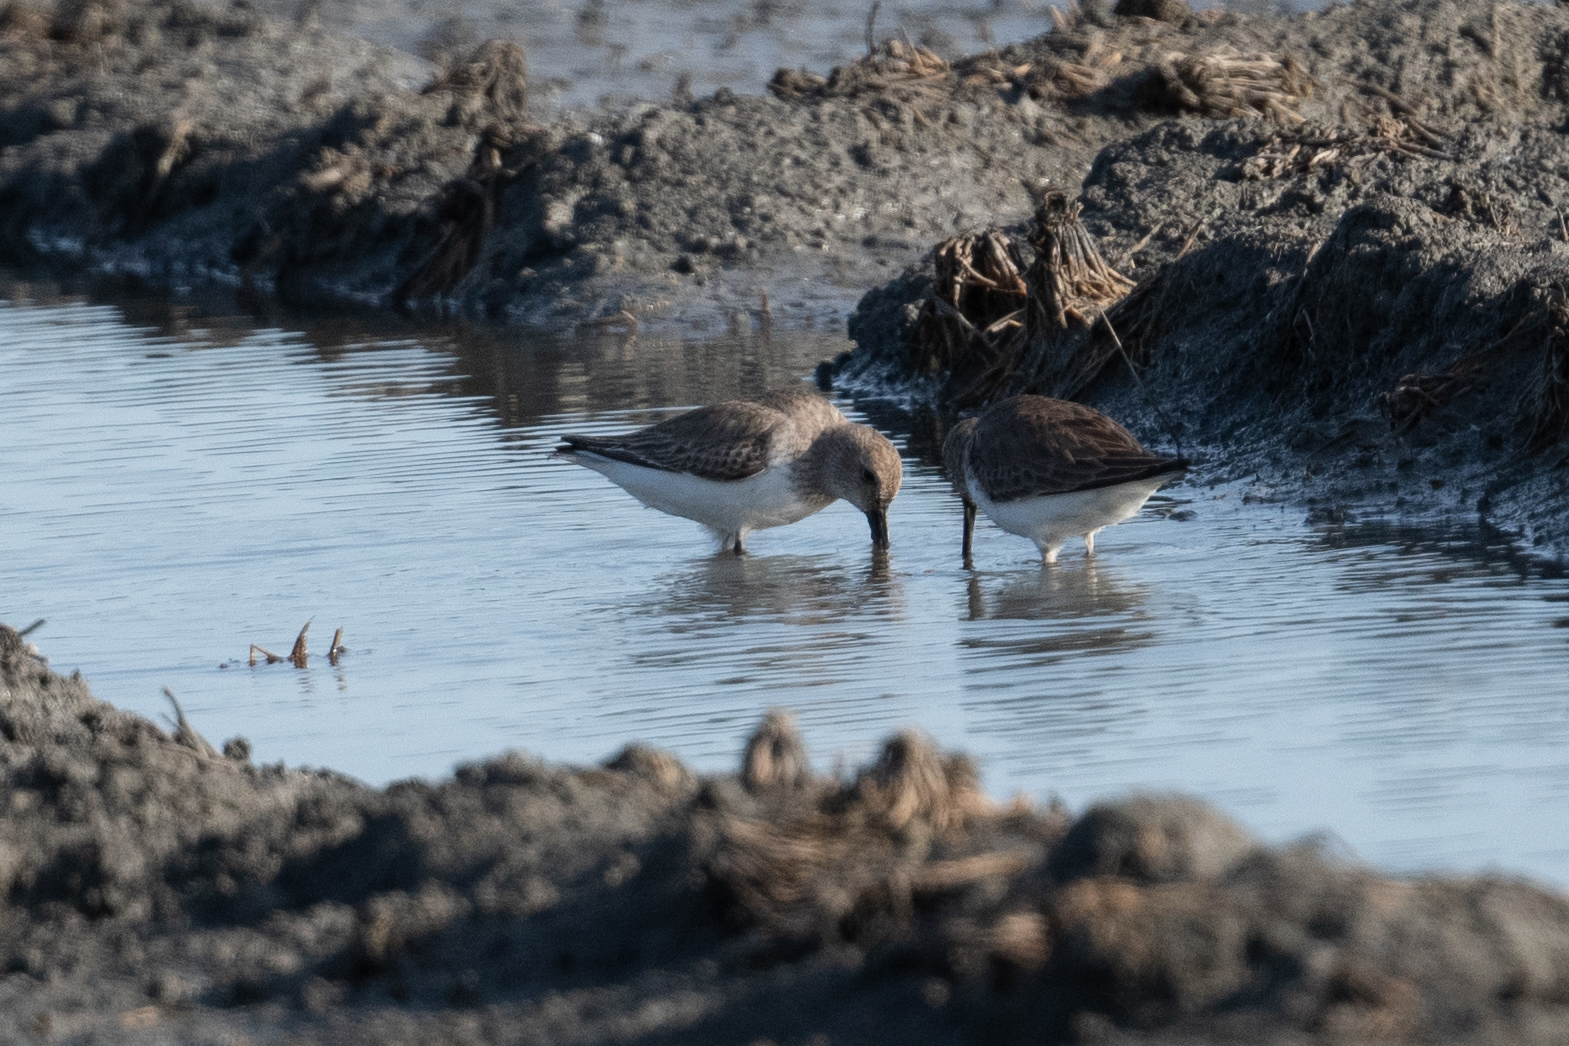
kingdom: Animalia
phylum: Chordata
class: Aves
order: Charadriiformes
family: Scolopacidae
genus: Calidris
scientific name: Calidris alpina
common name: Dunlin
